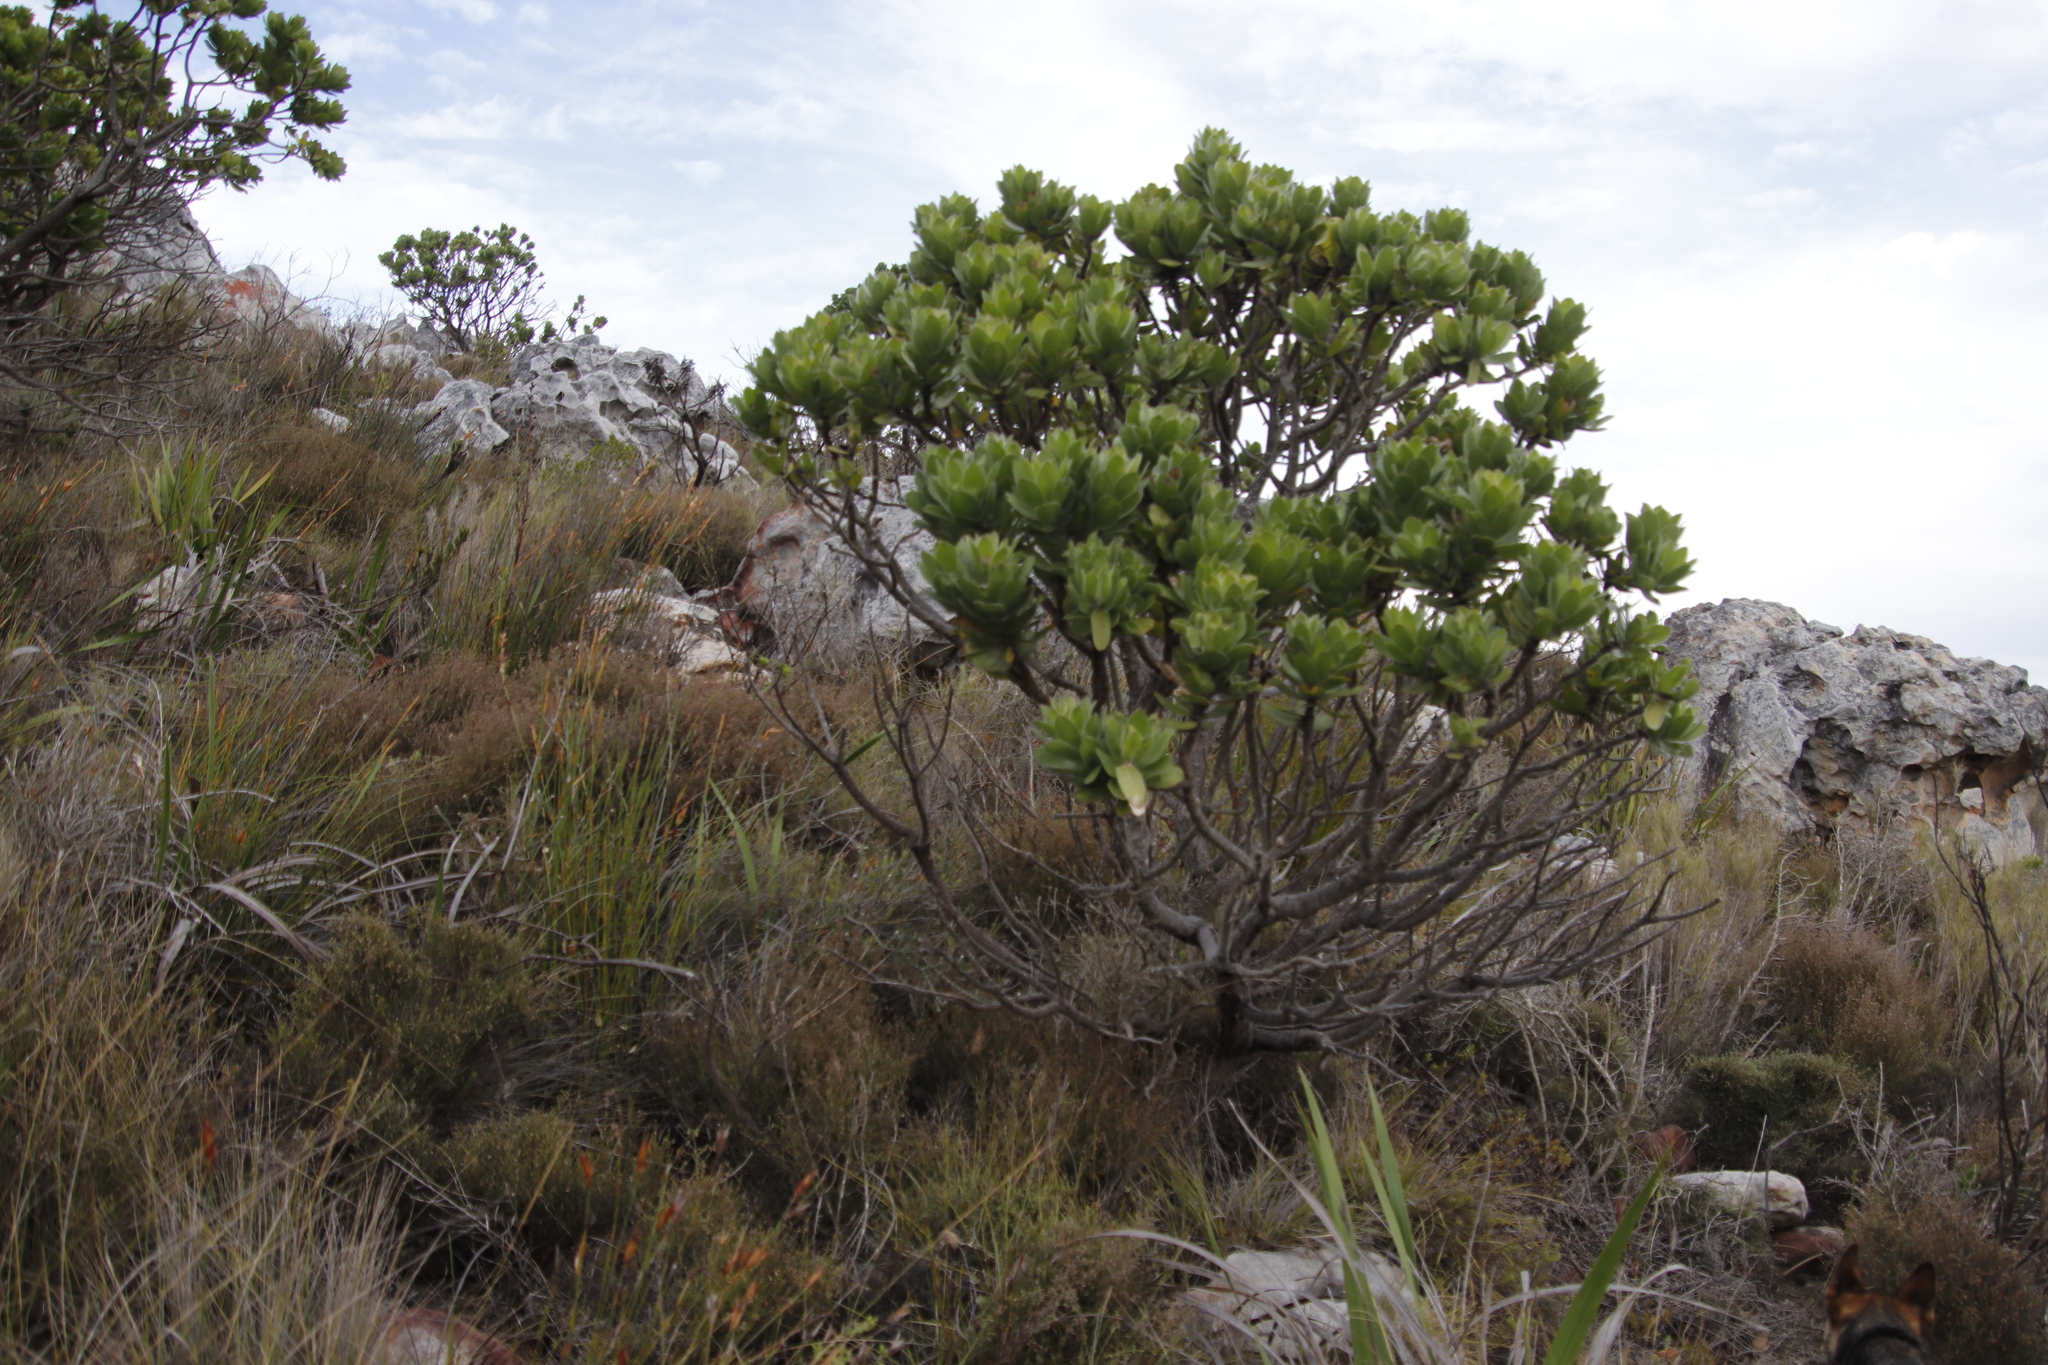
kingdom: Plantae
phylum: Tracheophyta
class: Magnoliopsida
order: Proteales
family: Proteaceae
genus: Leucospermum
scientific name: Leucospermum conocarpodendron
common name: Tree pincushion
